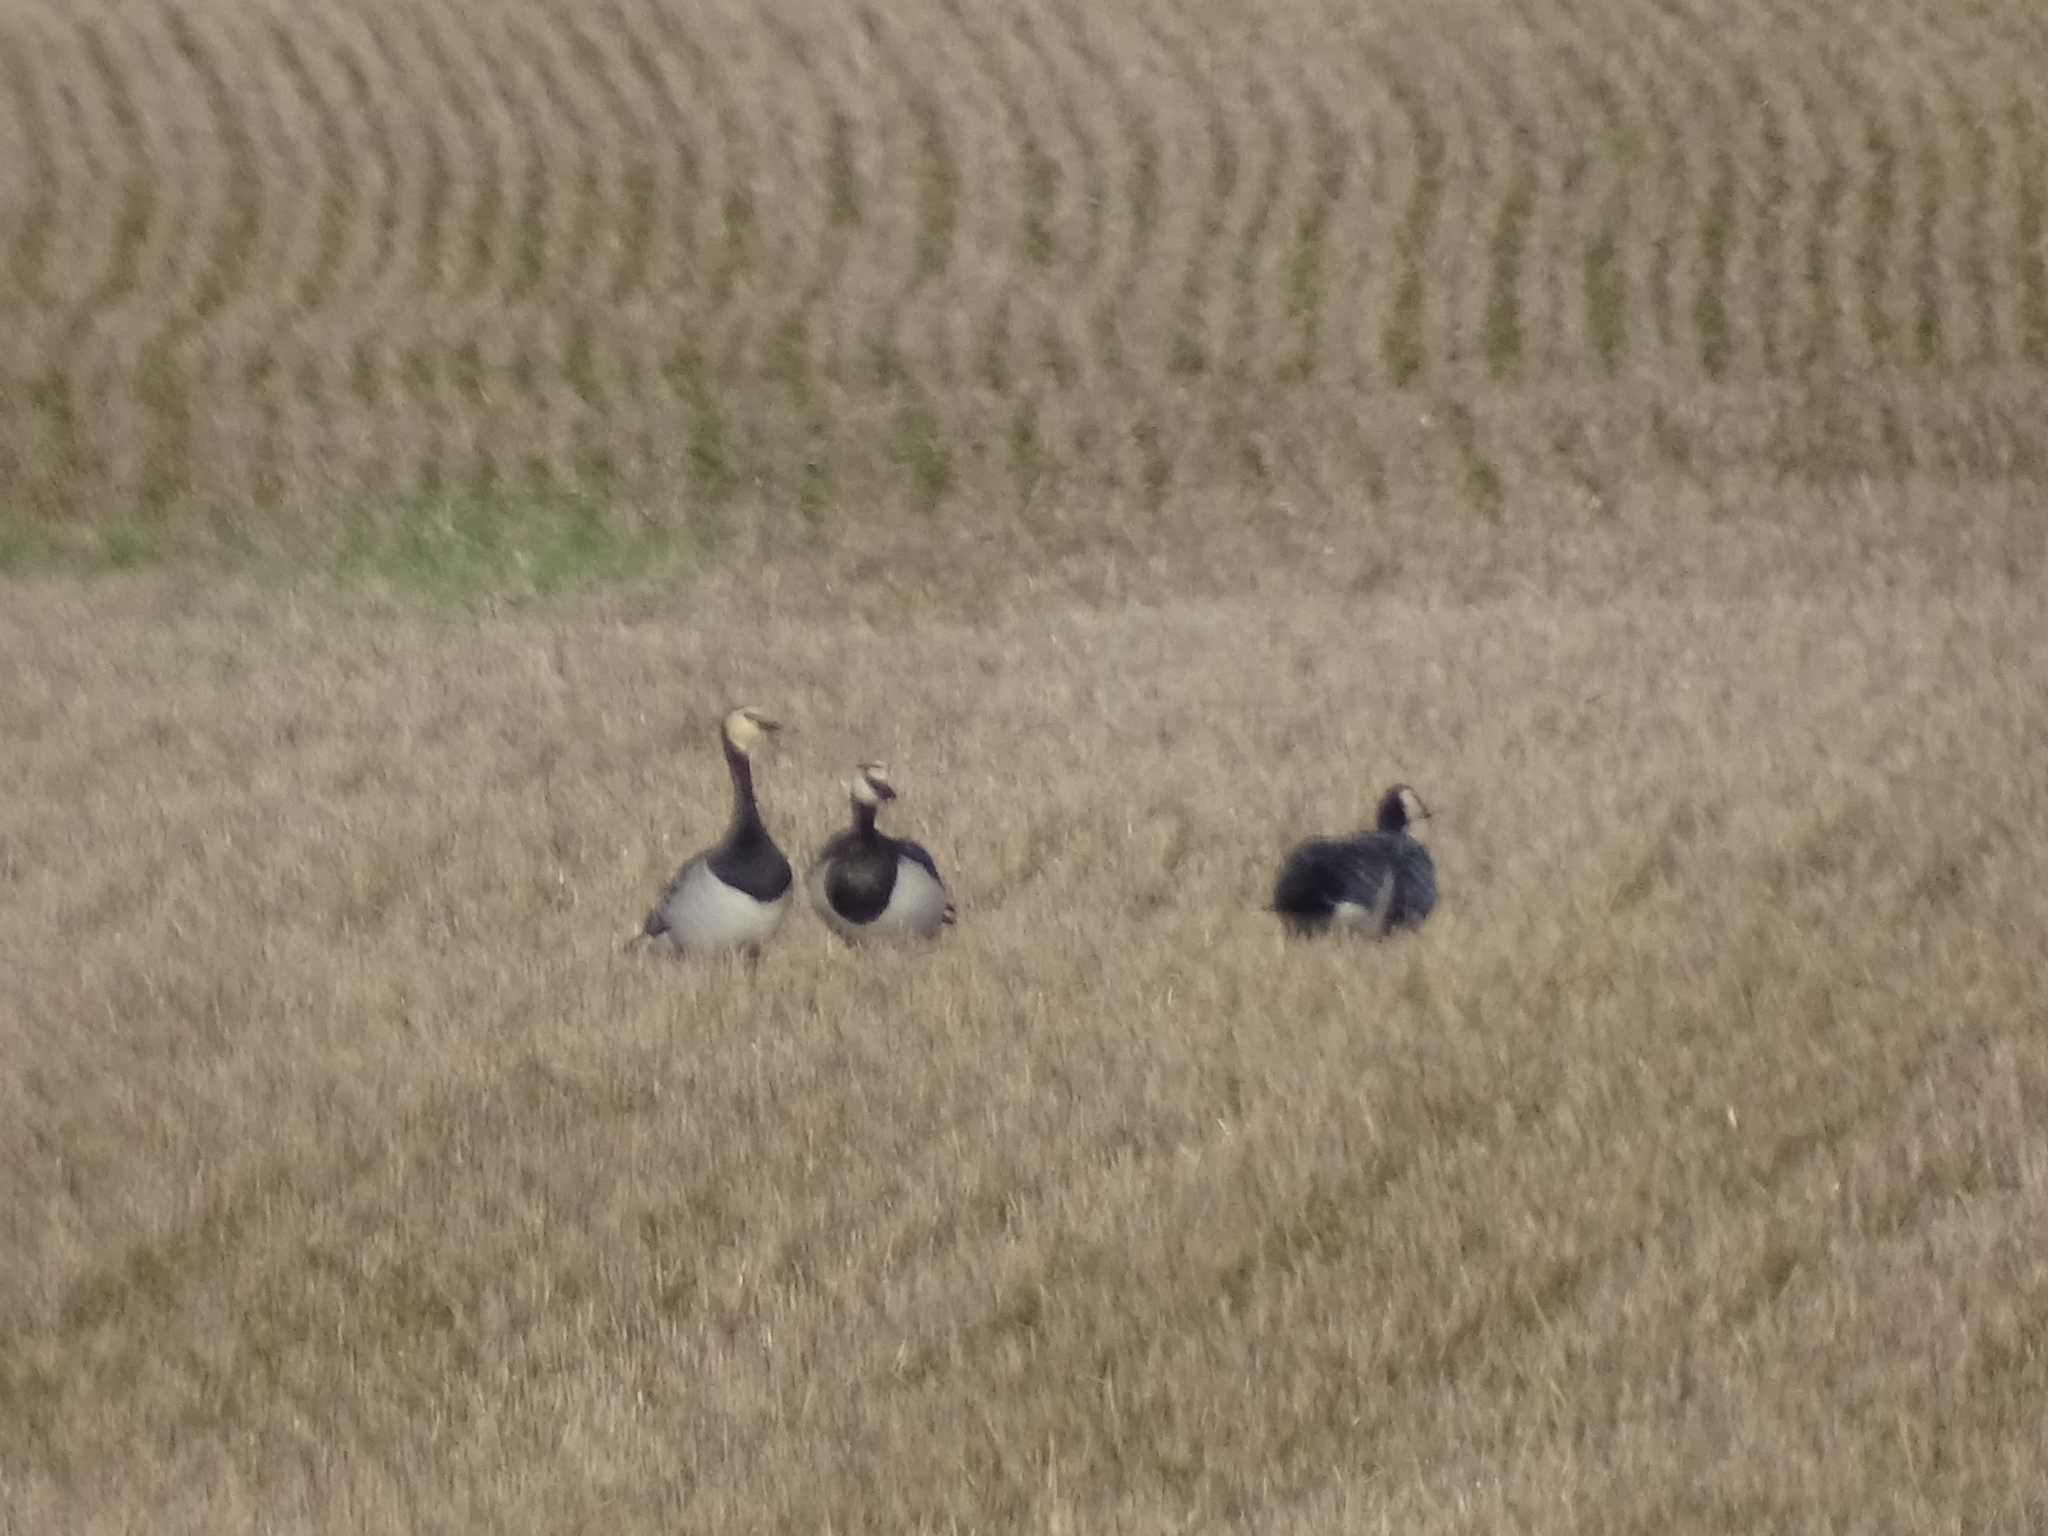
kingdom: Animalia
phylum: Chordata
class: Aves
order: Anseriformes
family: Anatidae
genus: Branta
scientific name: Branta leucopsis
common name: Barnacle goose
